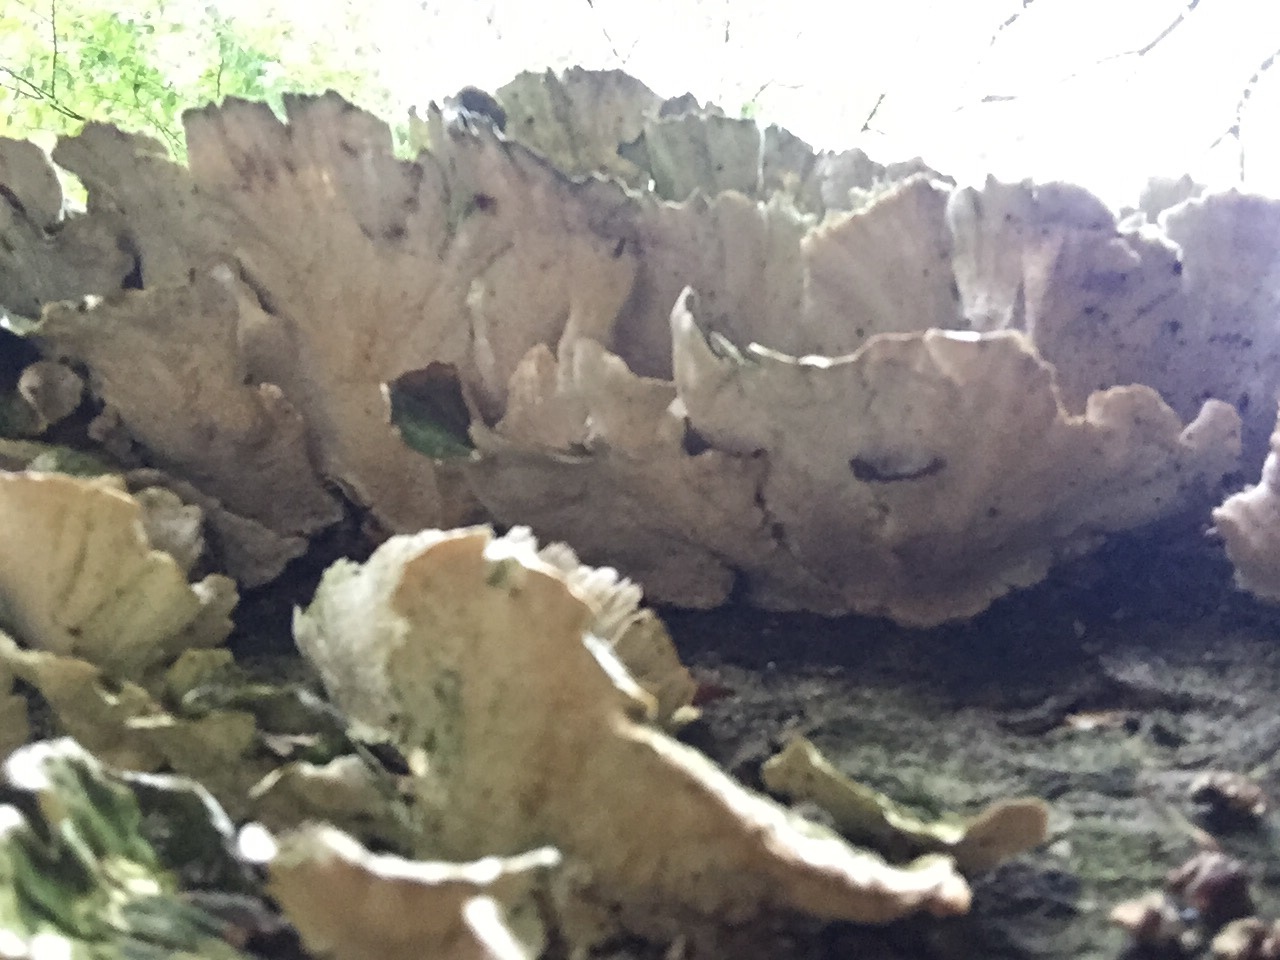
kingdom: Fungi
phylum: Basidiomycota
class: Agaricomycetes
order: Polyporales
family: Polyporaceae
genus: Trametes
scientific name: Trametes versicolor
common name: Turkeytail
